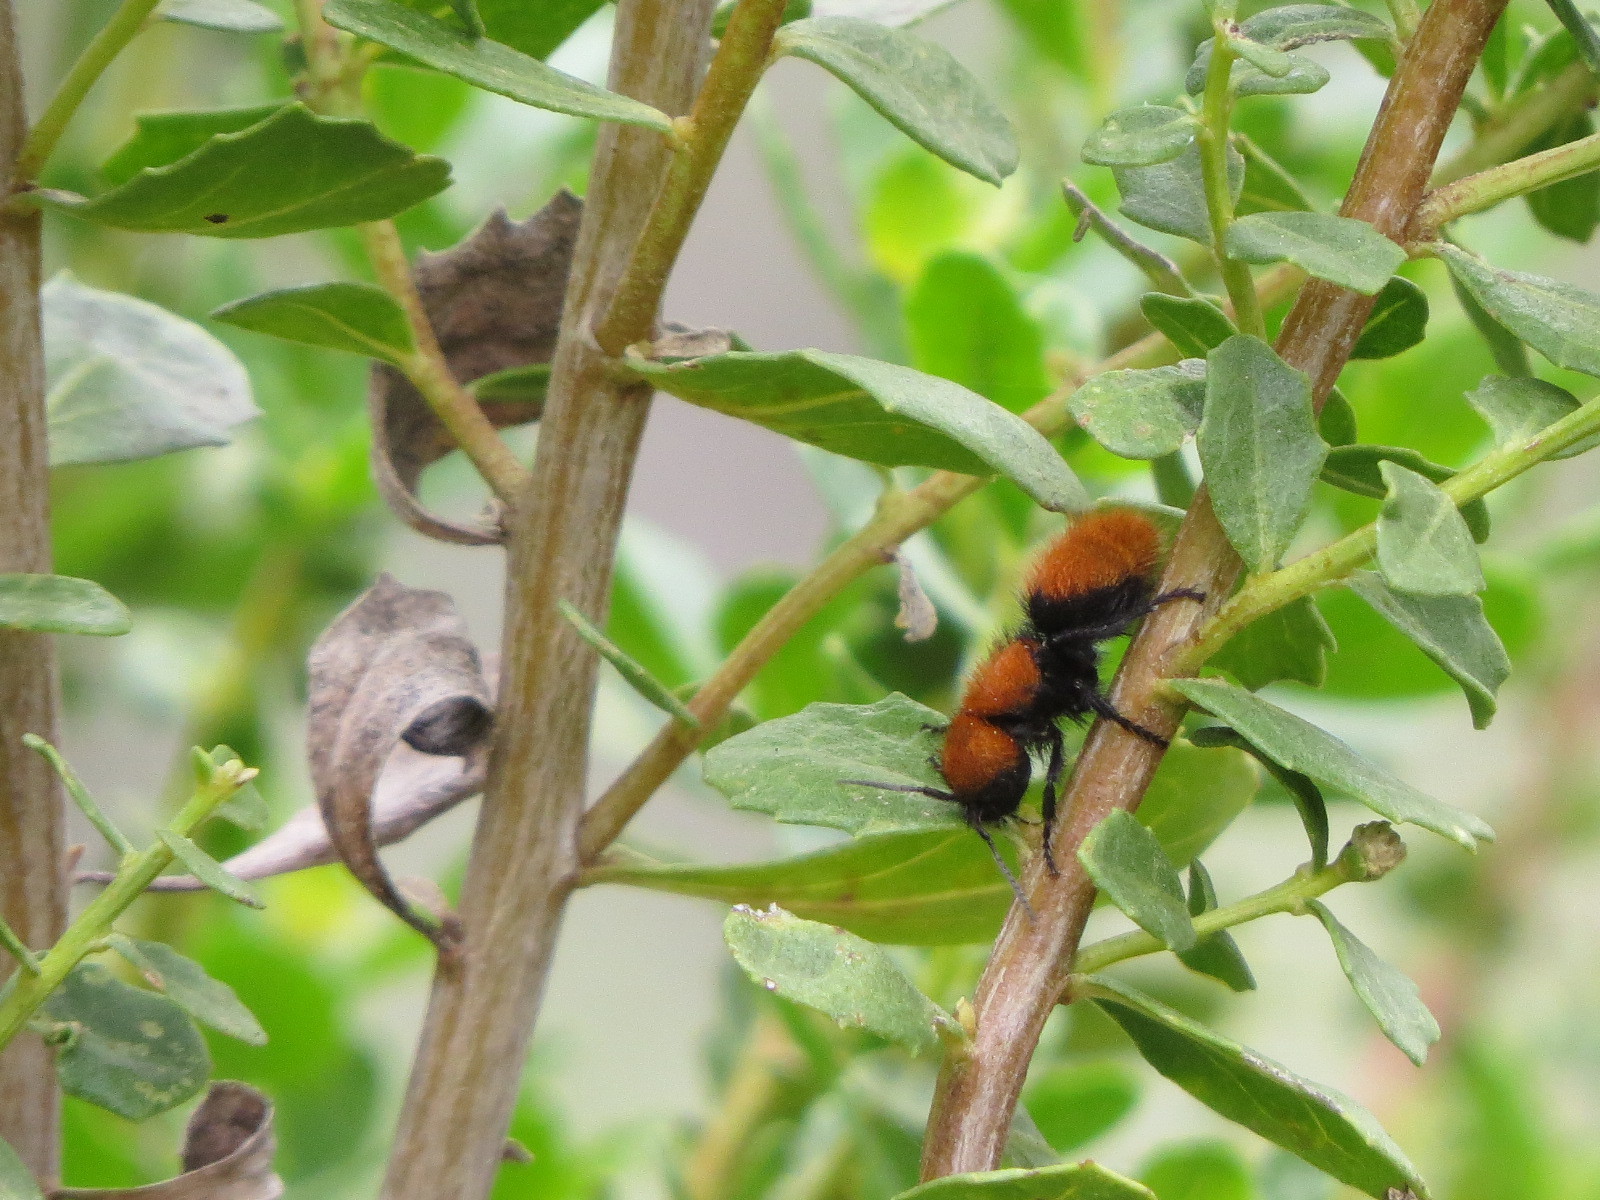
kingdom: Animalia
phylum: Arthropoda
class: Insecta
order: Hymenoptera
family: Mutillidae
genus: Dasymutilla
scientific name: Dasymutilla
